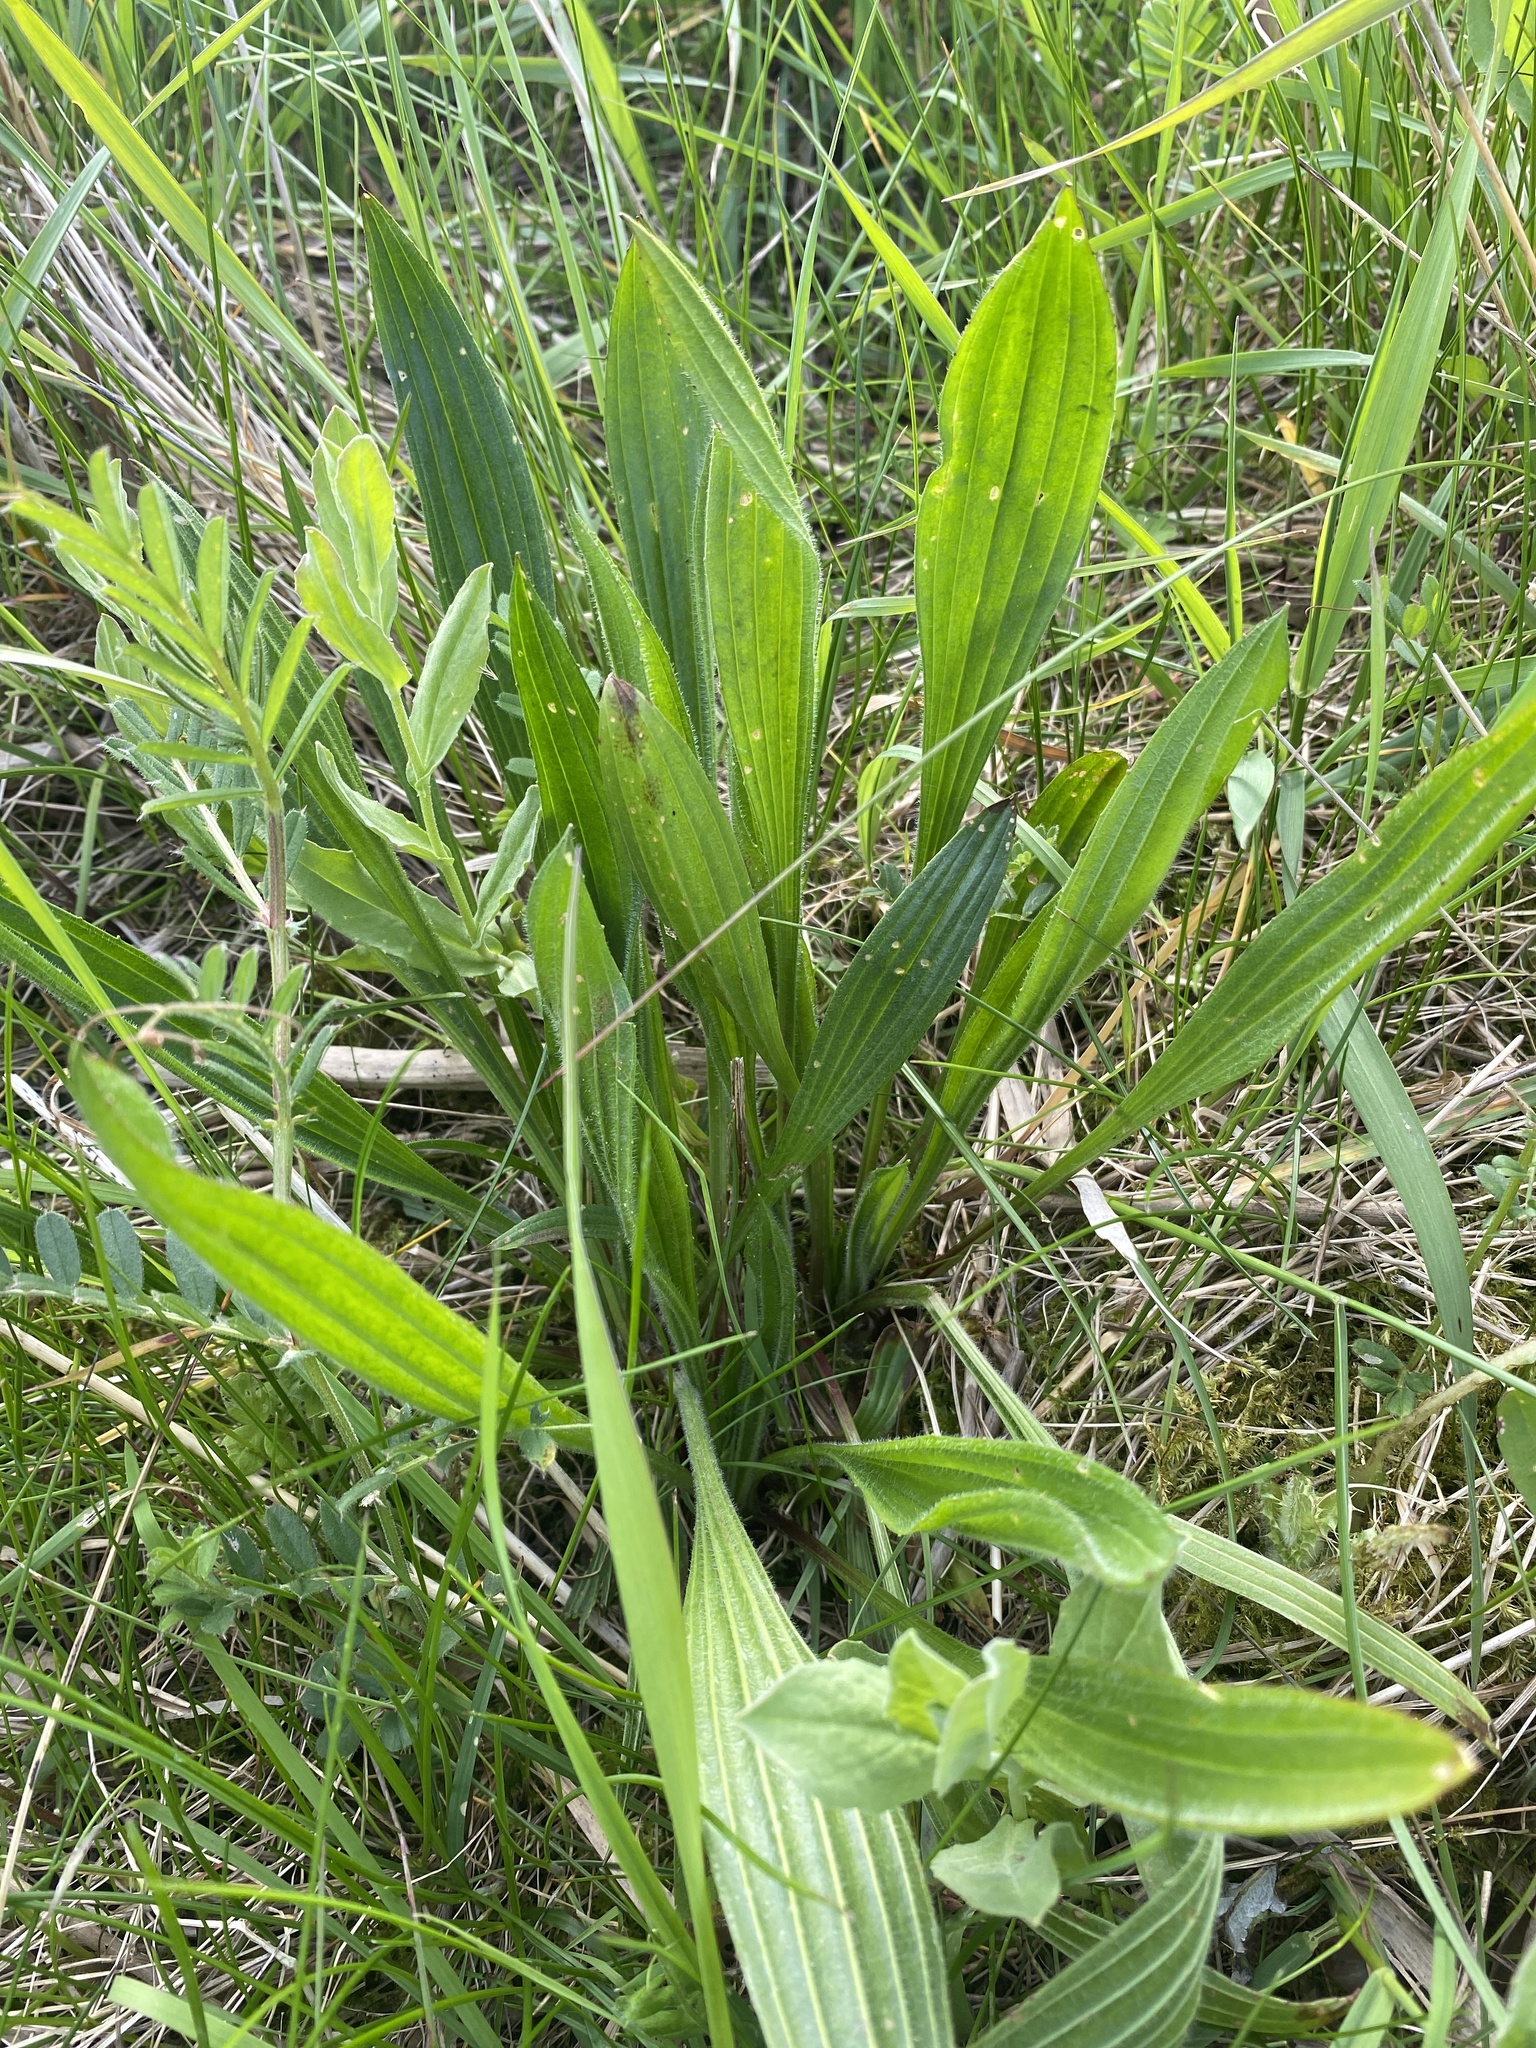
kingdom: Plantae
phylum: Tracheophyta
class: Magnoliopsida
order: Lamiales
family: Plantaginaceae
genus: Plantago
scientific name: Plantago lanceolata
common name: Ribwort plantain
